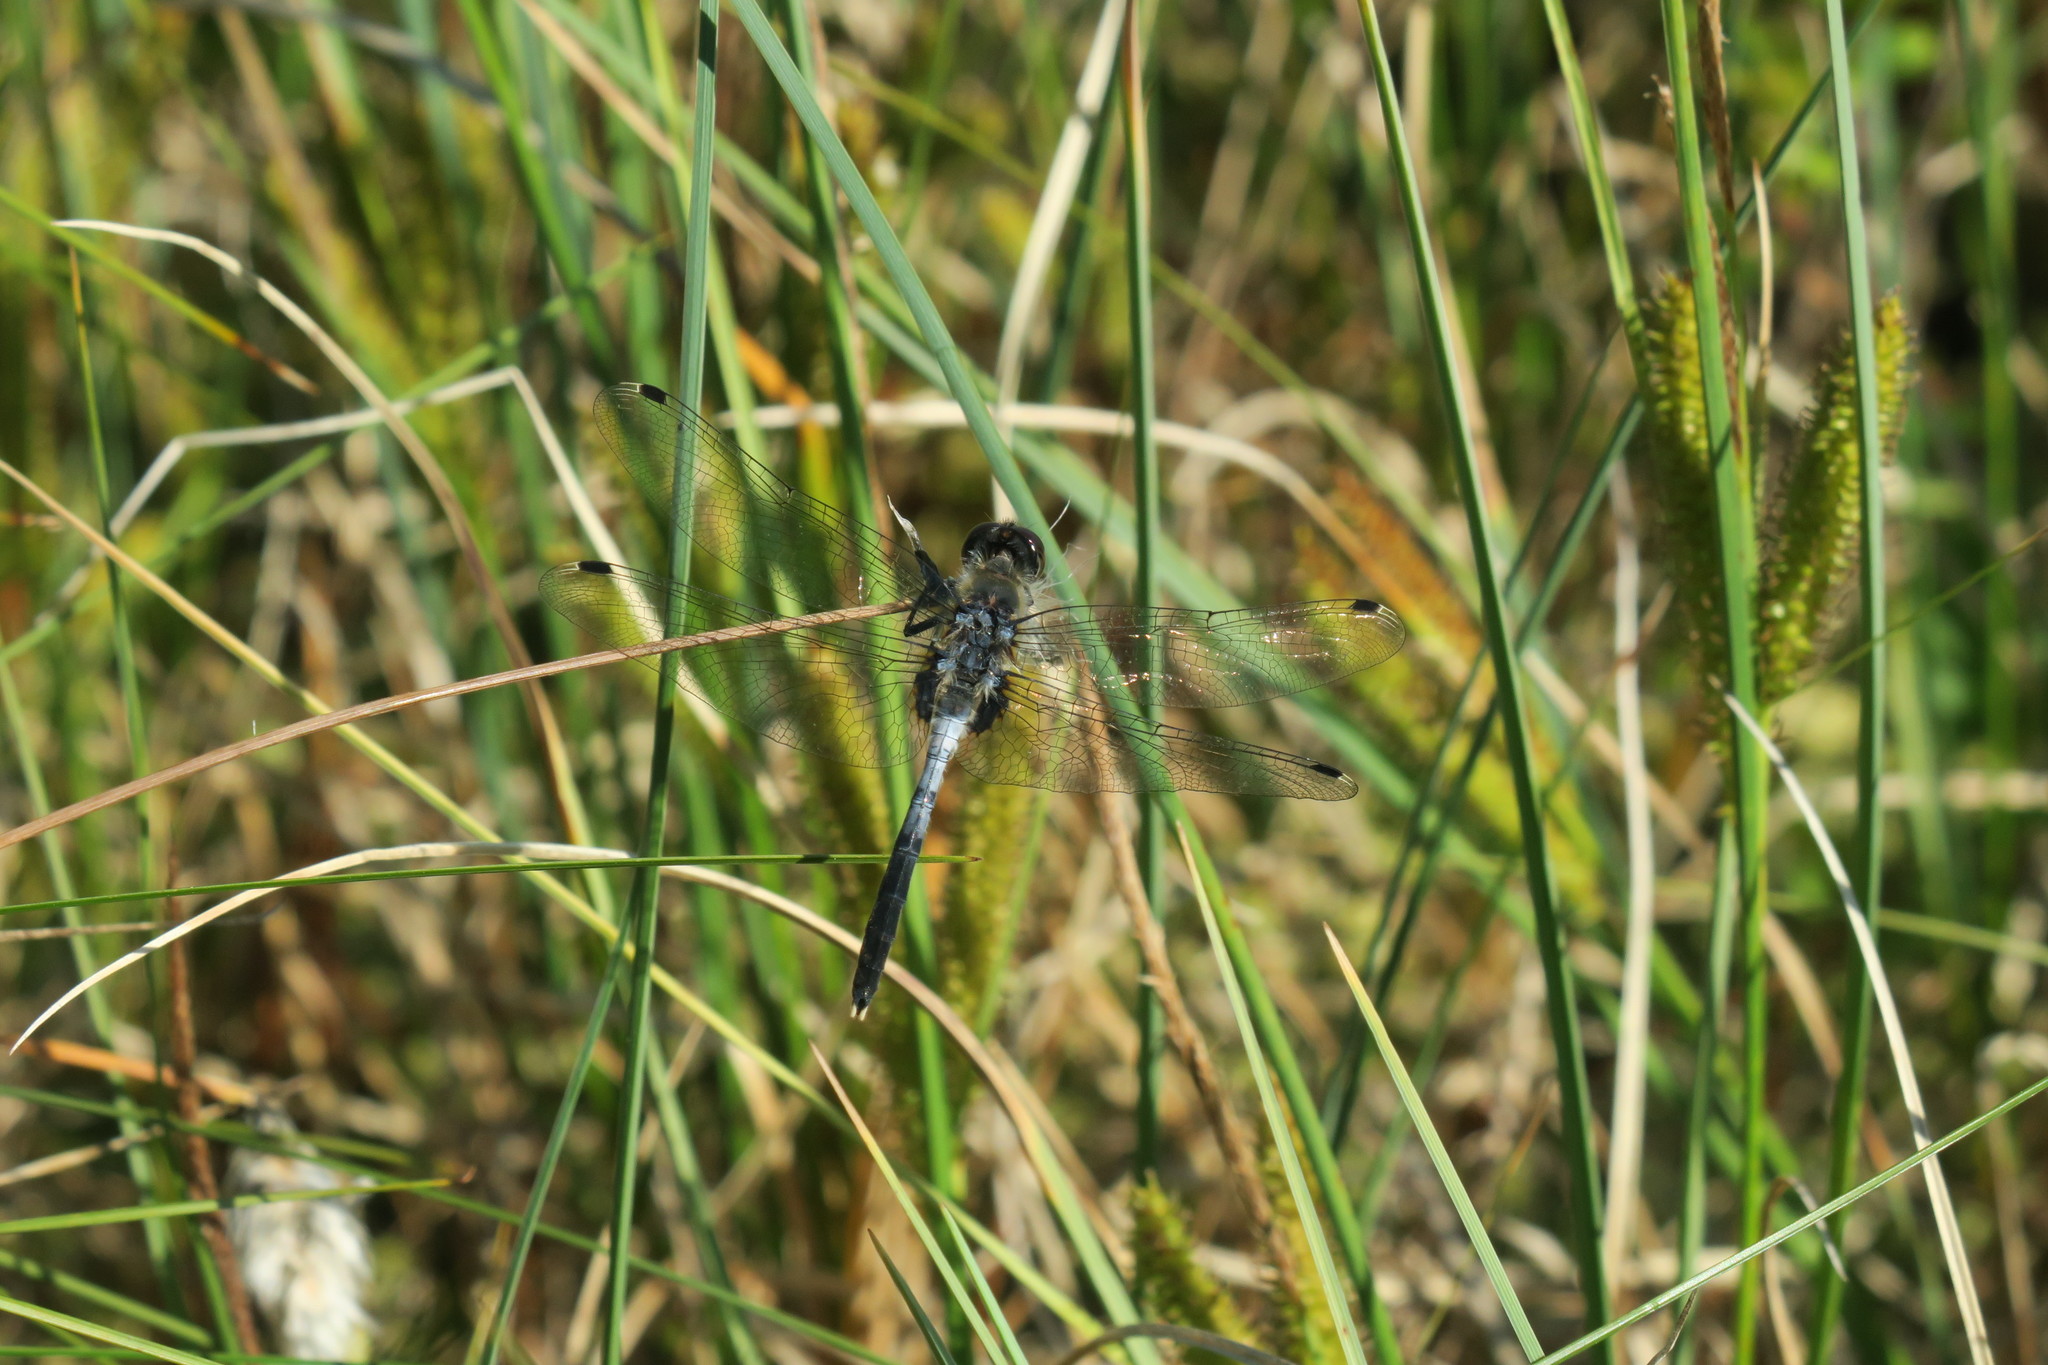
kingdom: Animalia
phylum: Arthropoda
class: Insecta
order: Odonata
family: Libellulidae
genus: Leucorrhinia
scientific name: Leucorrhinia albifrons
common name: Dark whiteface
